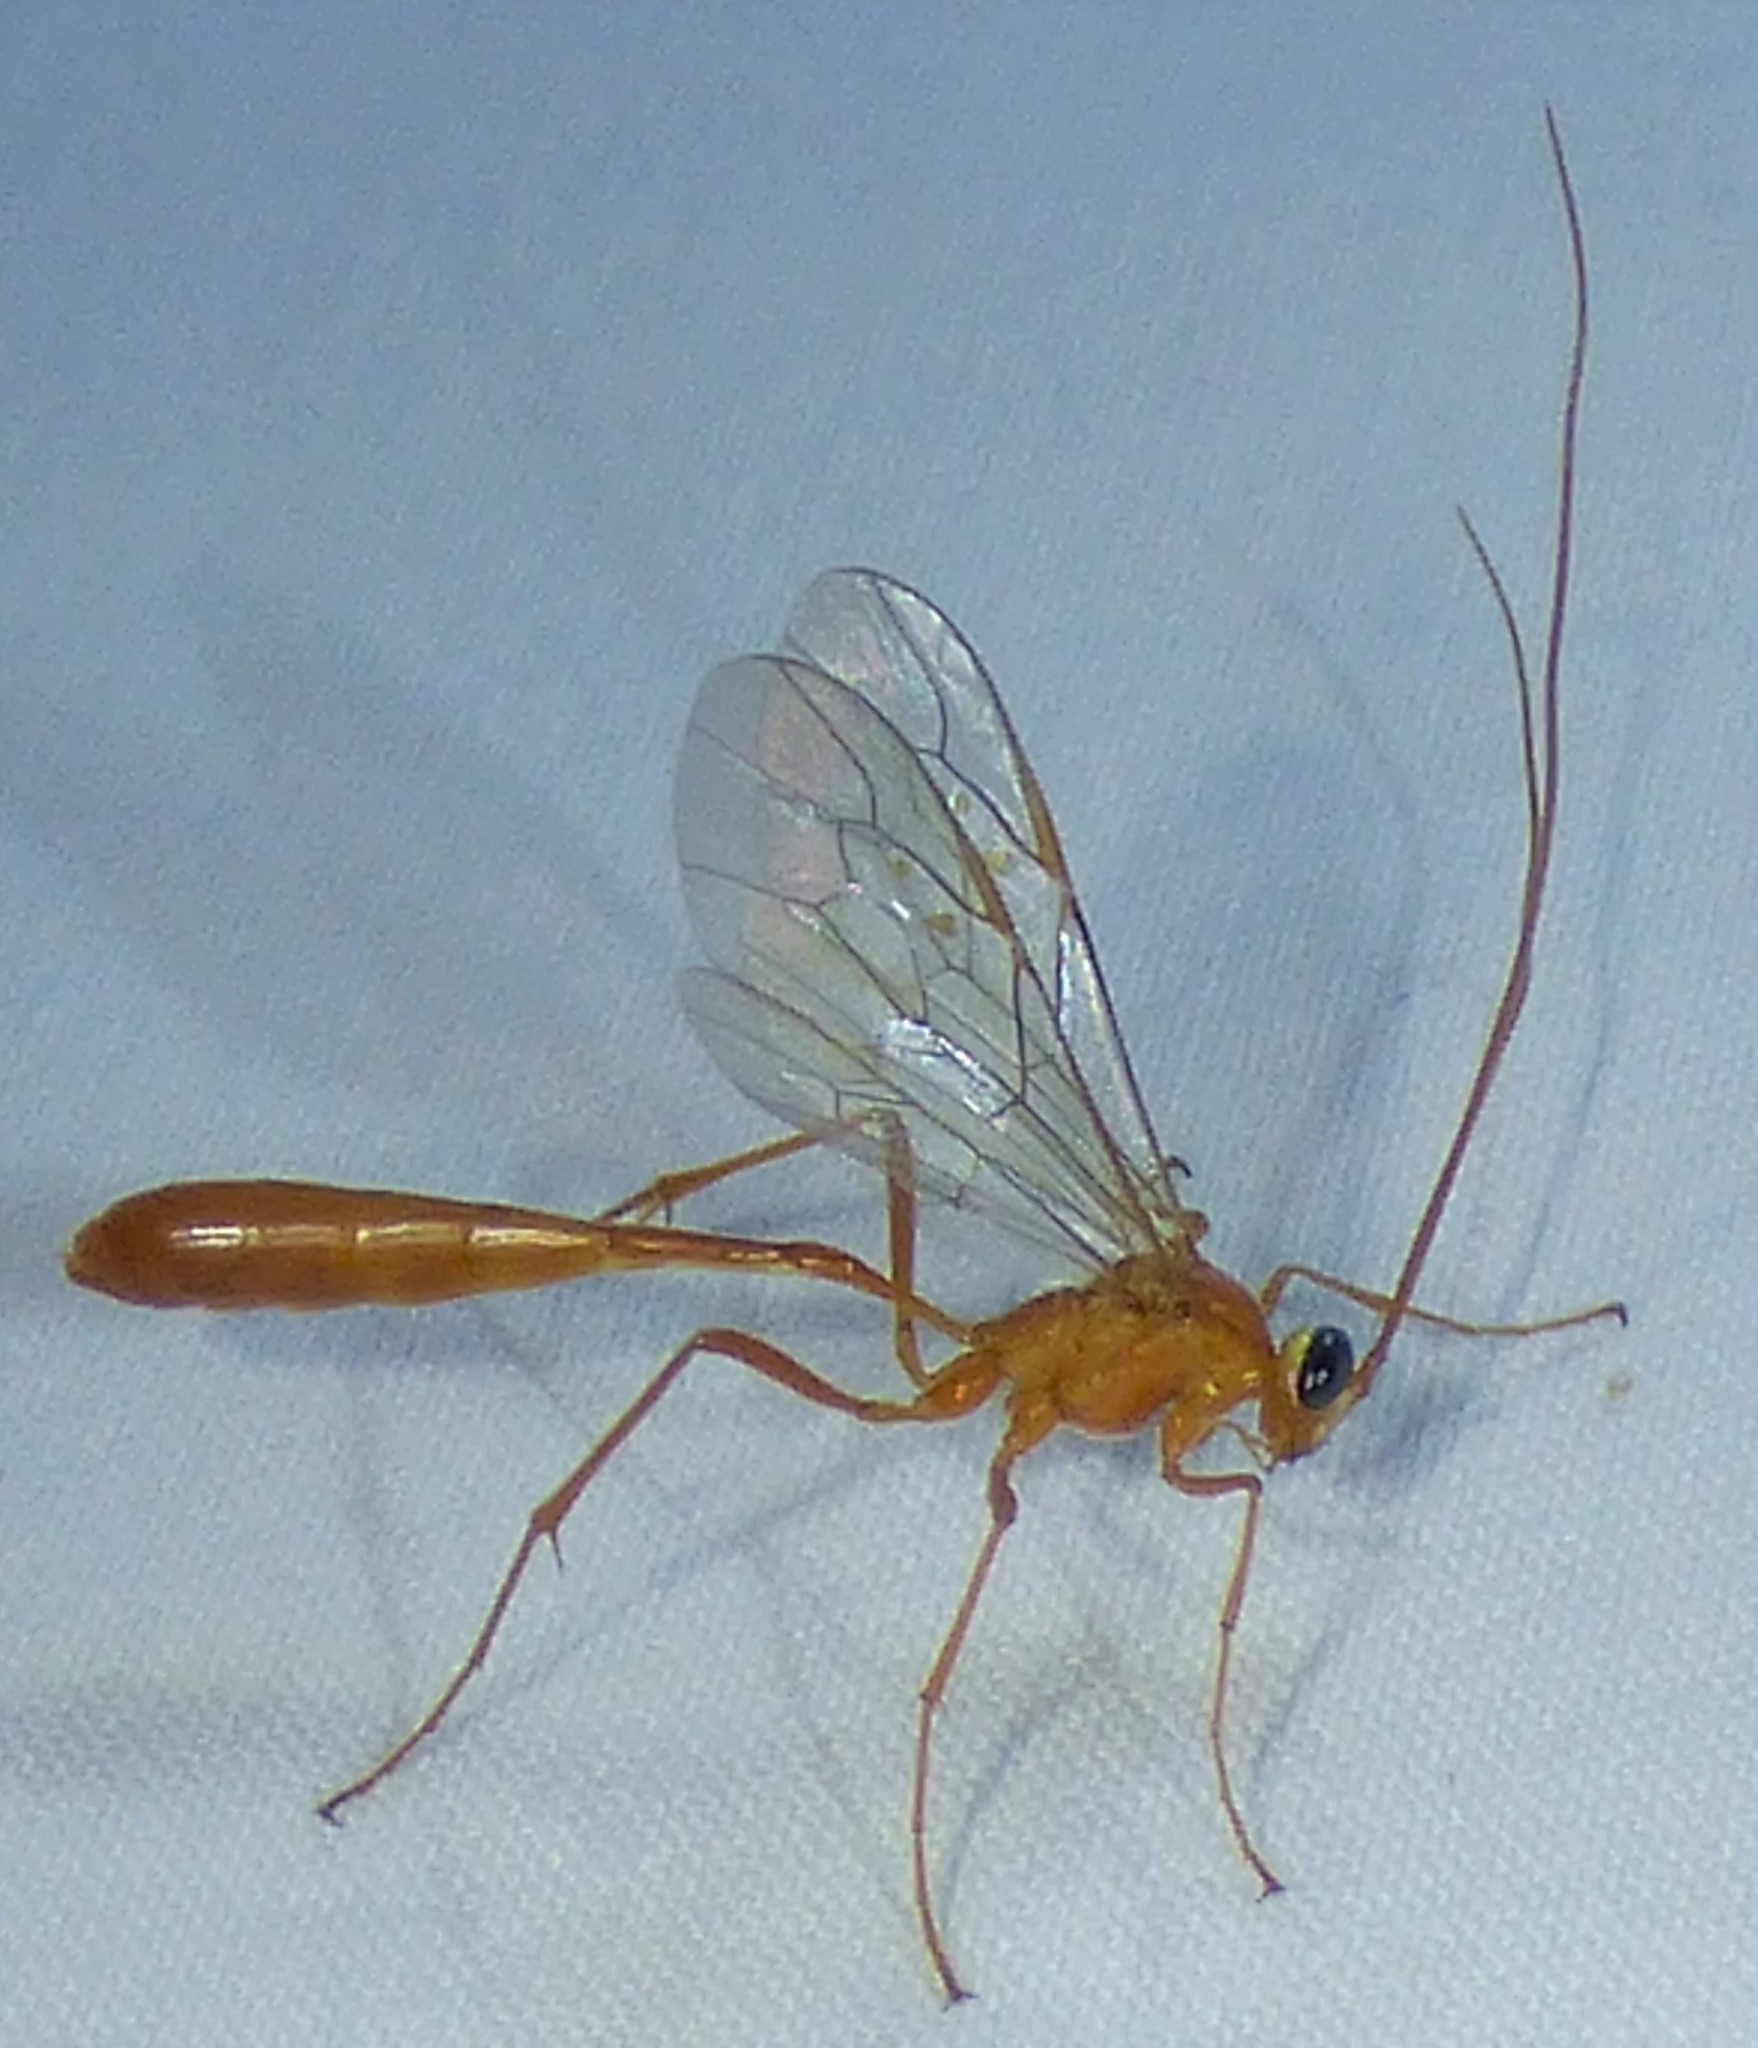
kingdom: Animalia
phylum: Arthropoda
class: Insecta
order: Hymenoptera
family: Ichneumonidae
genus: Enicospilus
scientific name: Enicospilus purgatus
